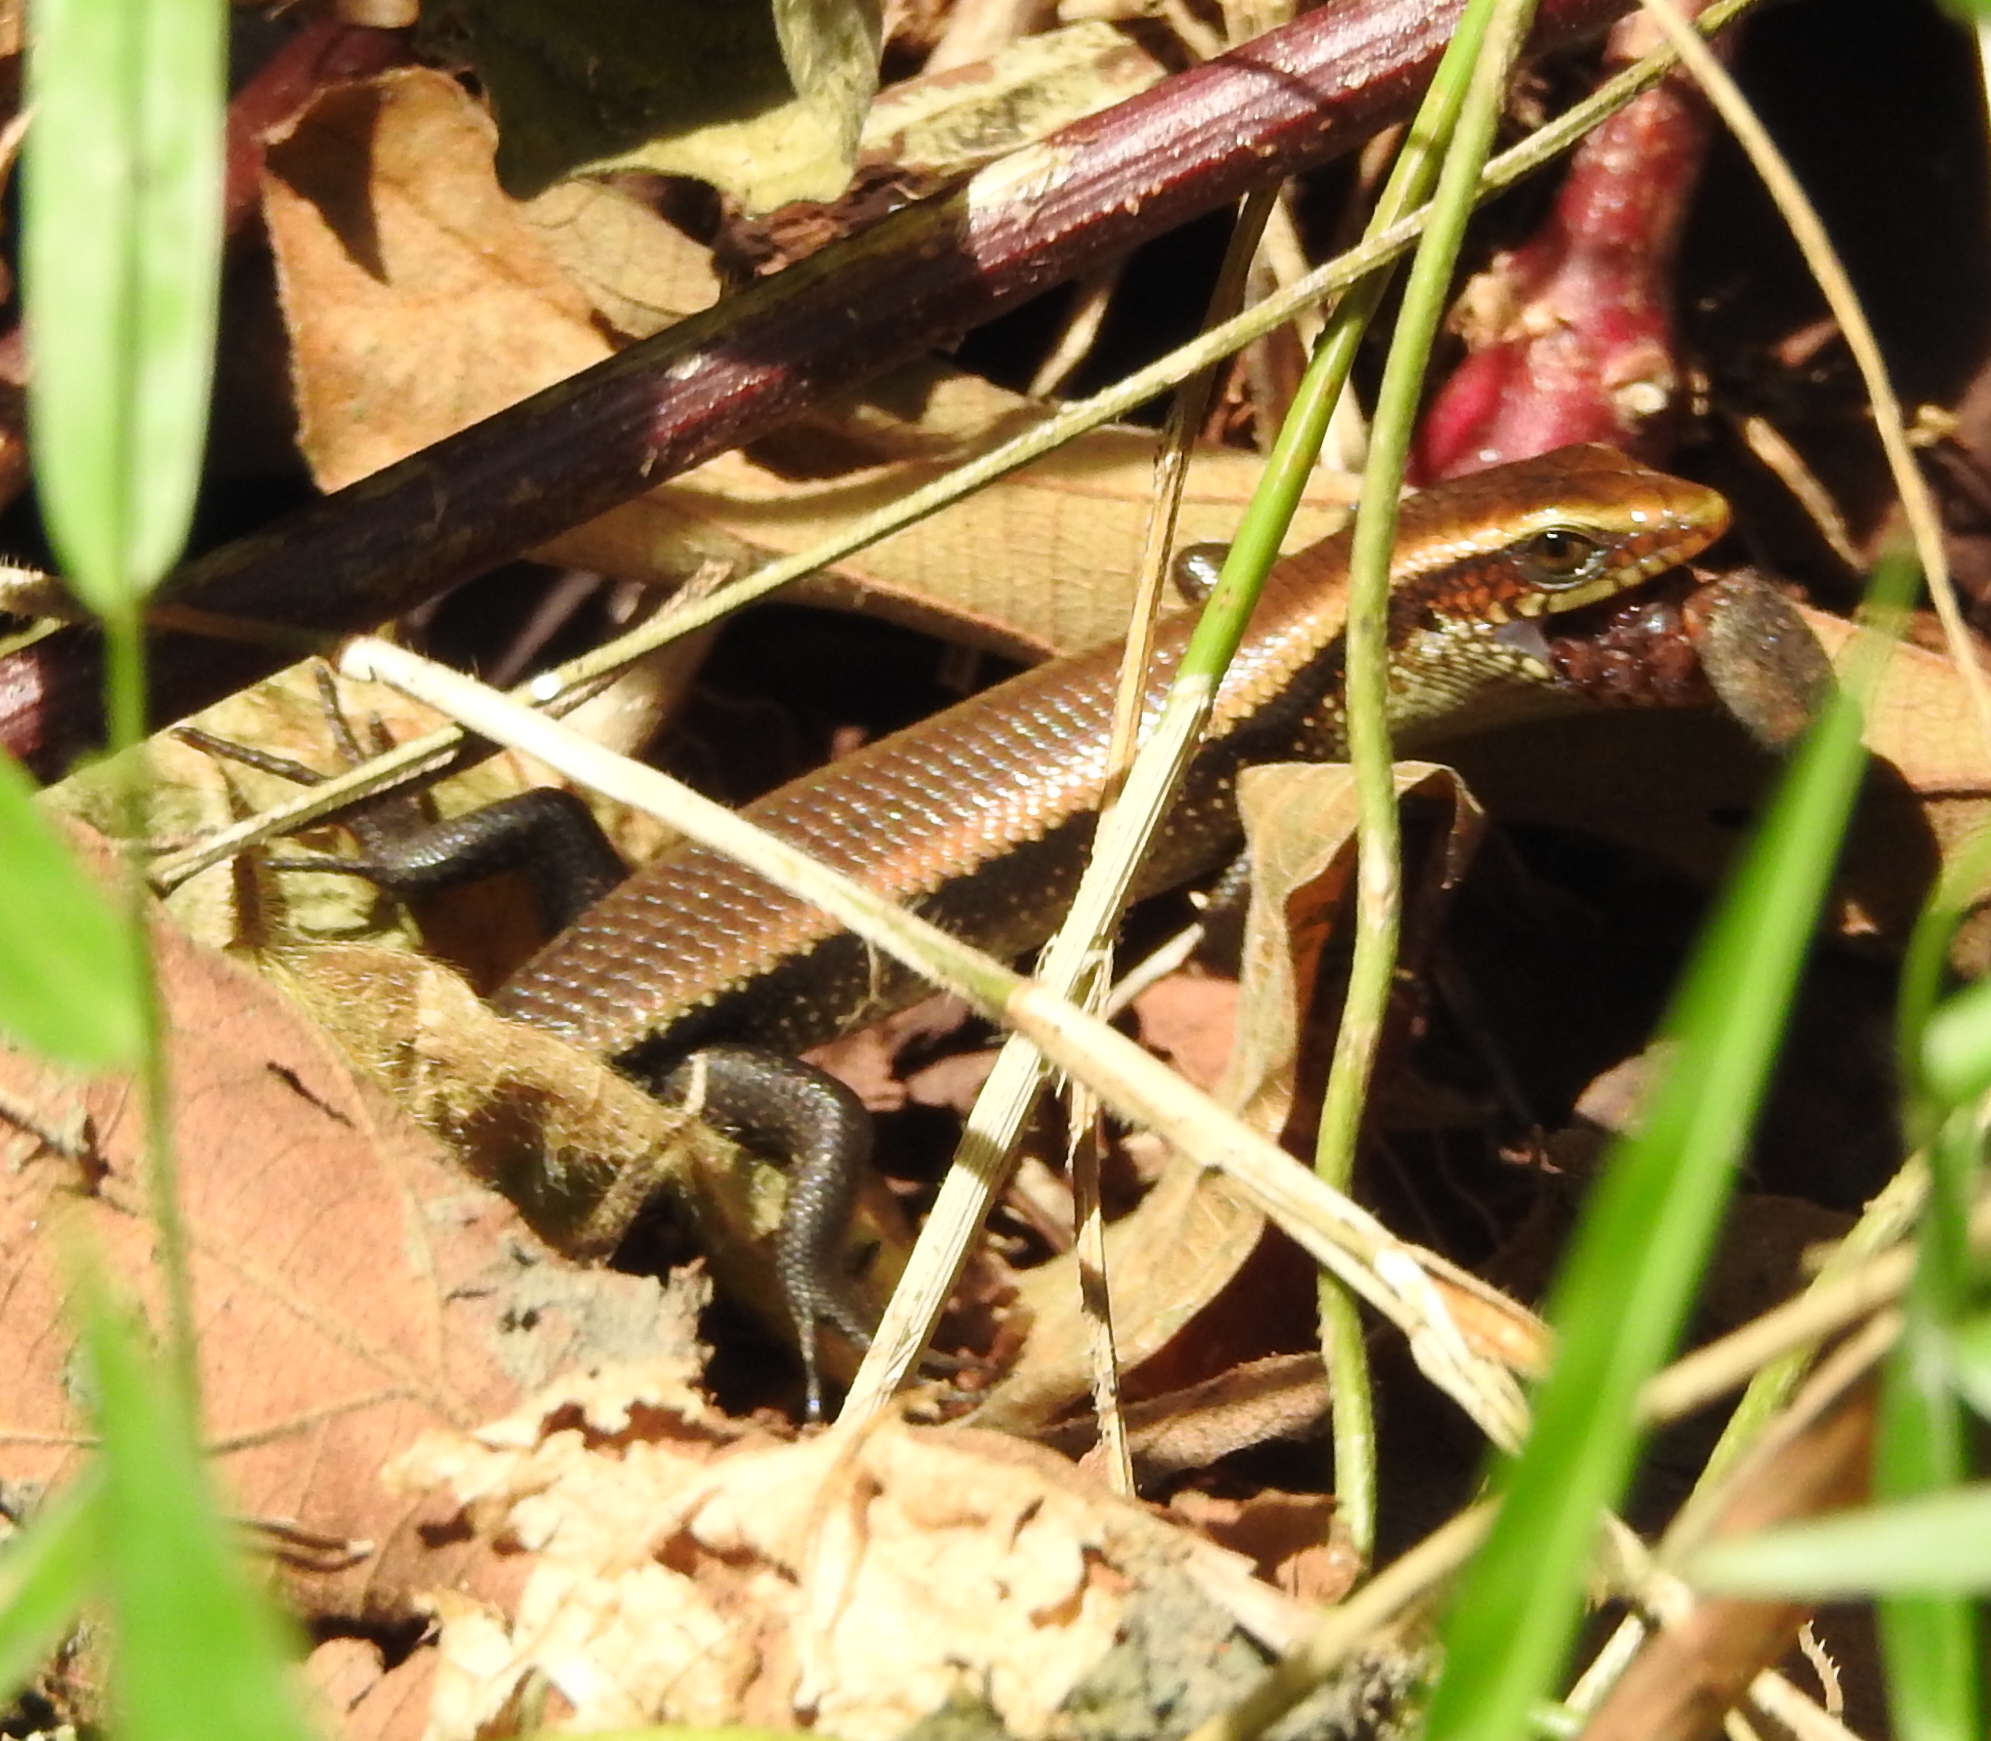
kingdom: Animalia
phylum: Chordata
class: Squamata
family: Scincidae
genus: Eutropis
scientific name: Eutropis multifasciata
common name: Common mabuya
